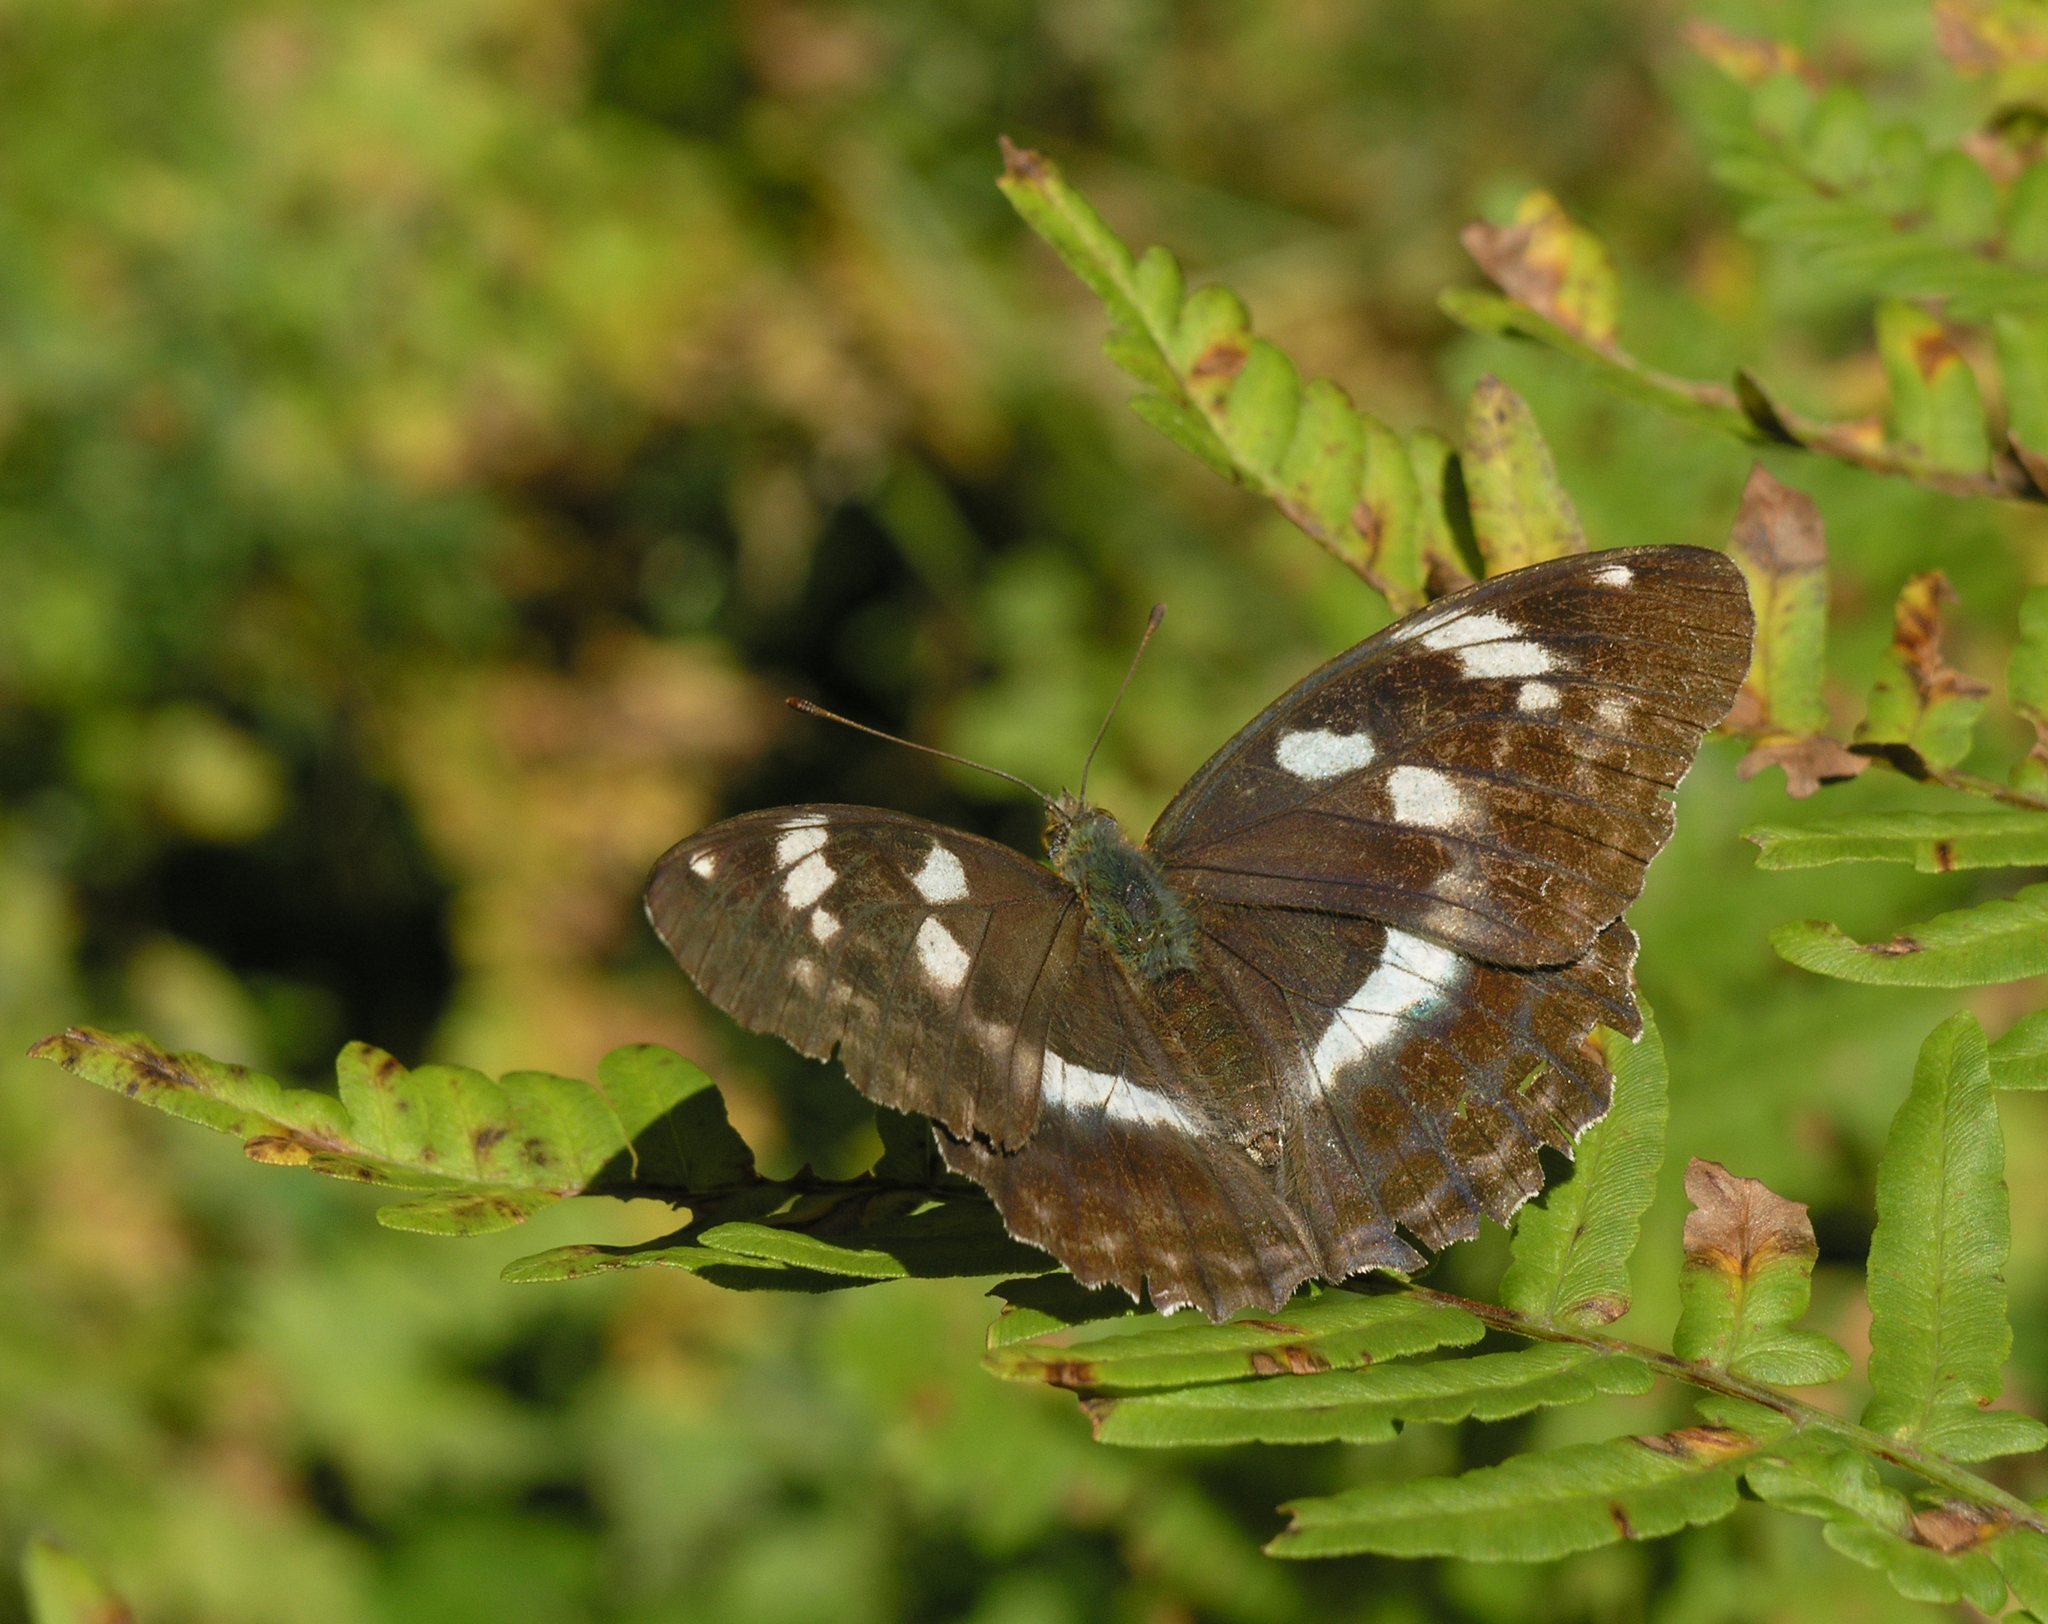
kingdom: Plantae
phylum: Tracheophyta
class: Polypodiopsida
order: Polypodiales
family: Dennstaedtiaceae
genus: Pteridium
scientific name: Pteridium aquilinum
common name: Bracken
